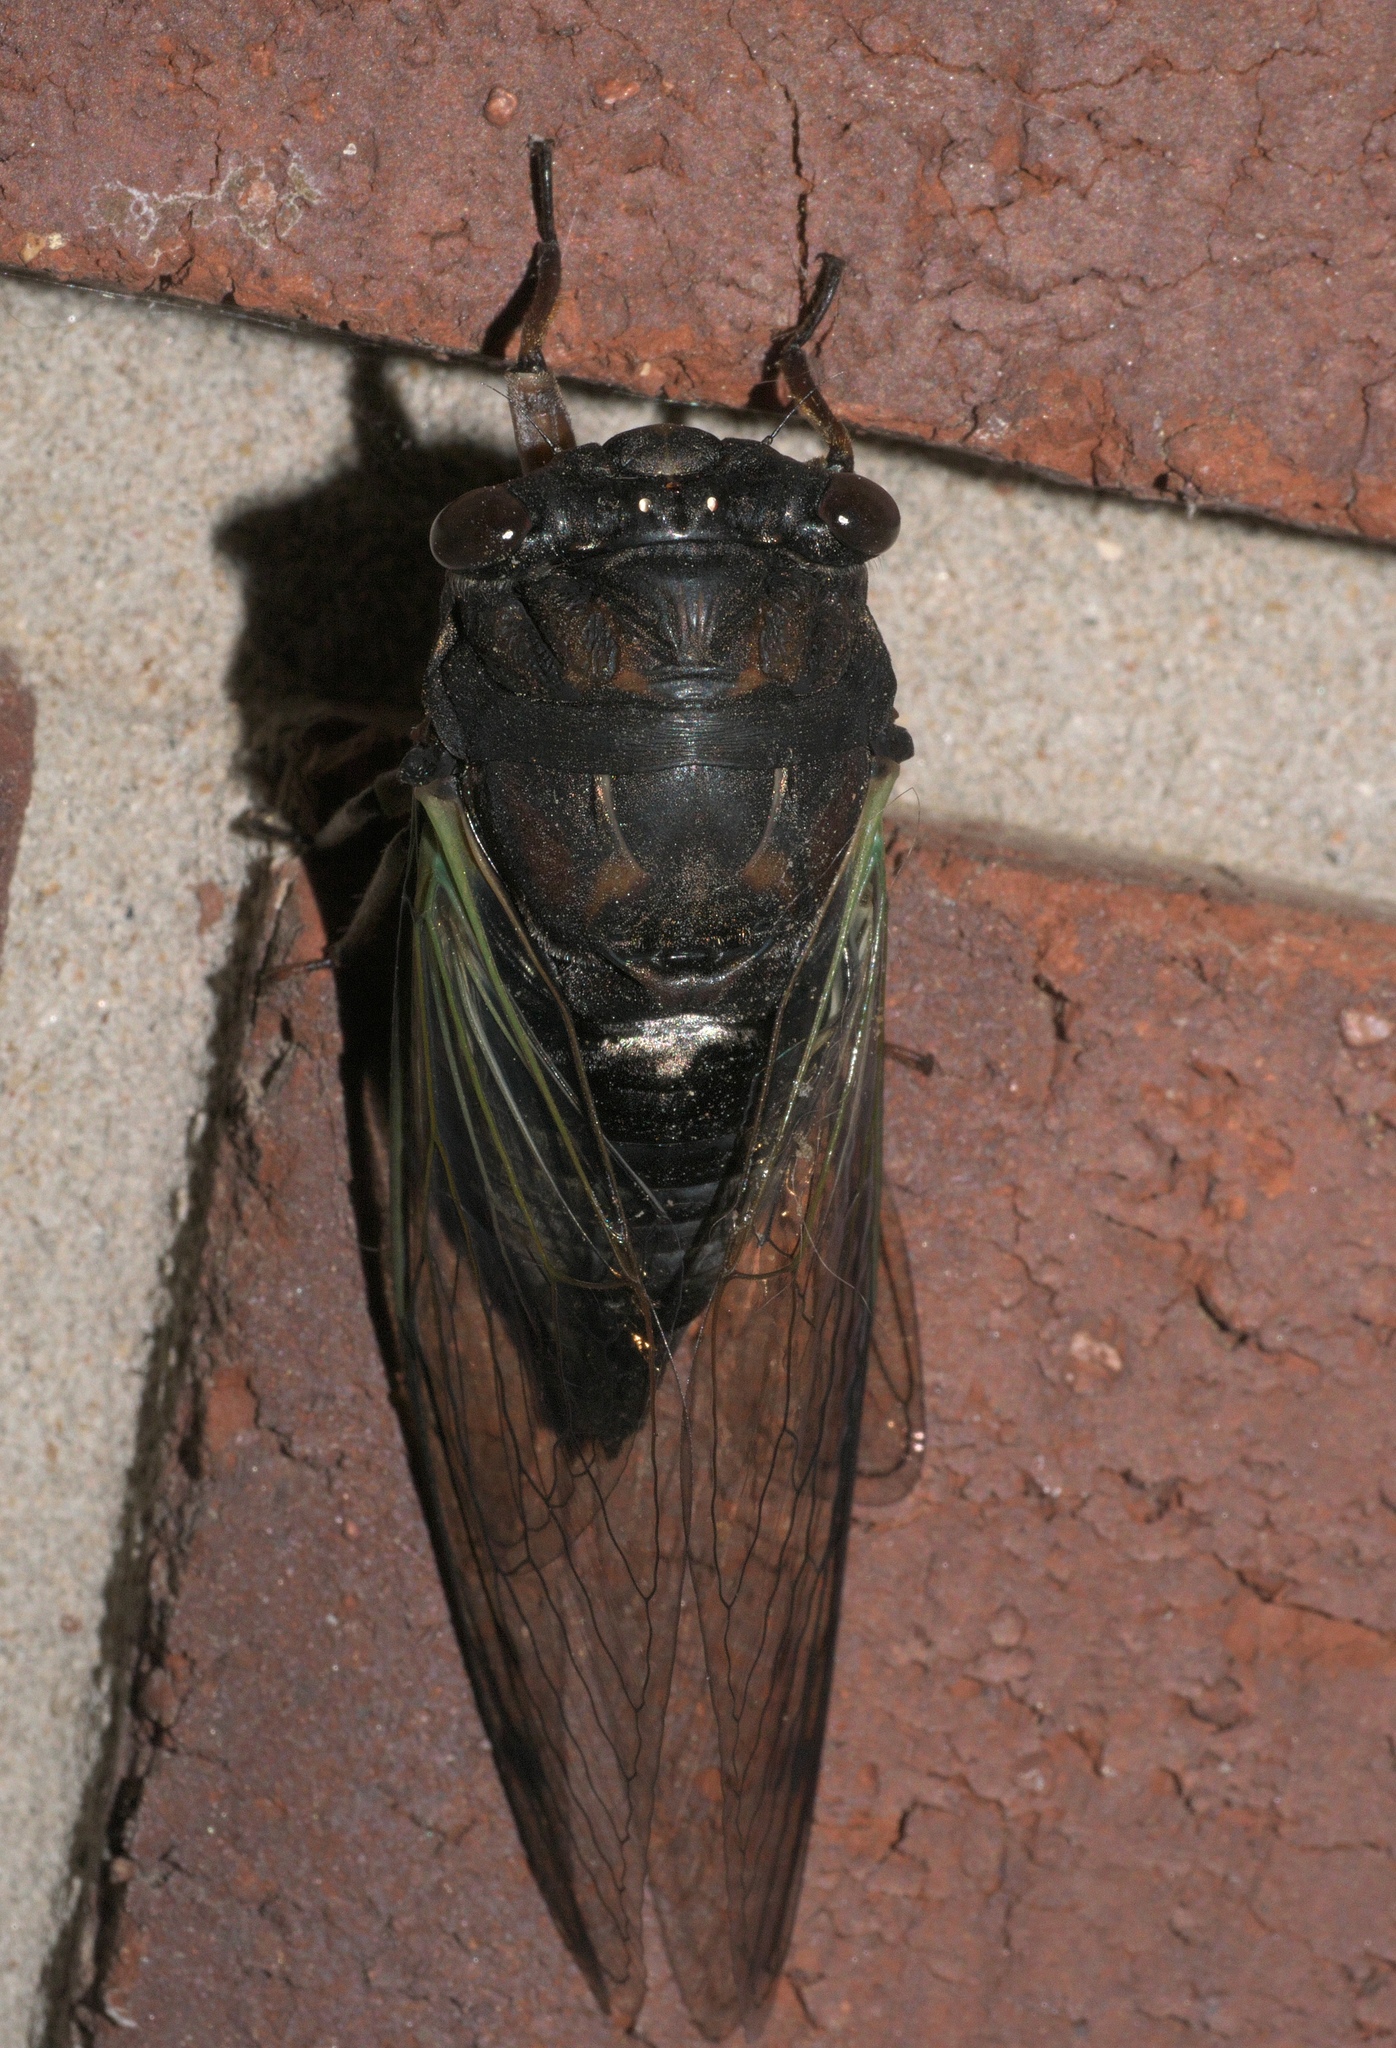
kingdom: Animalia
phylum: Arthropoda
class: Insecta
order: Hemiptera
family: Cicadidae
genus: Neotibicen
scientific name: Neotibicen lyricen
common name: Lyric cicada
